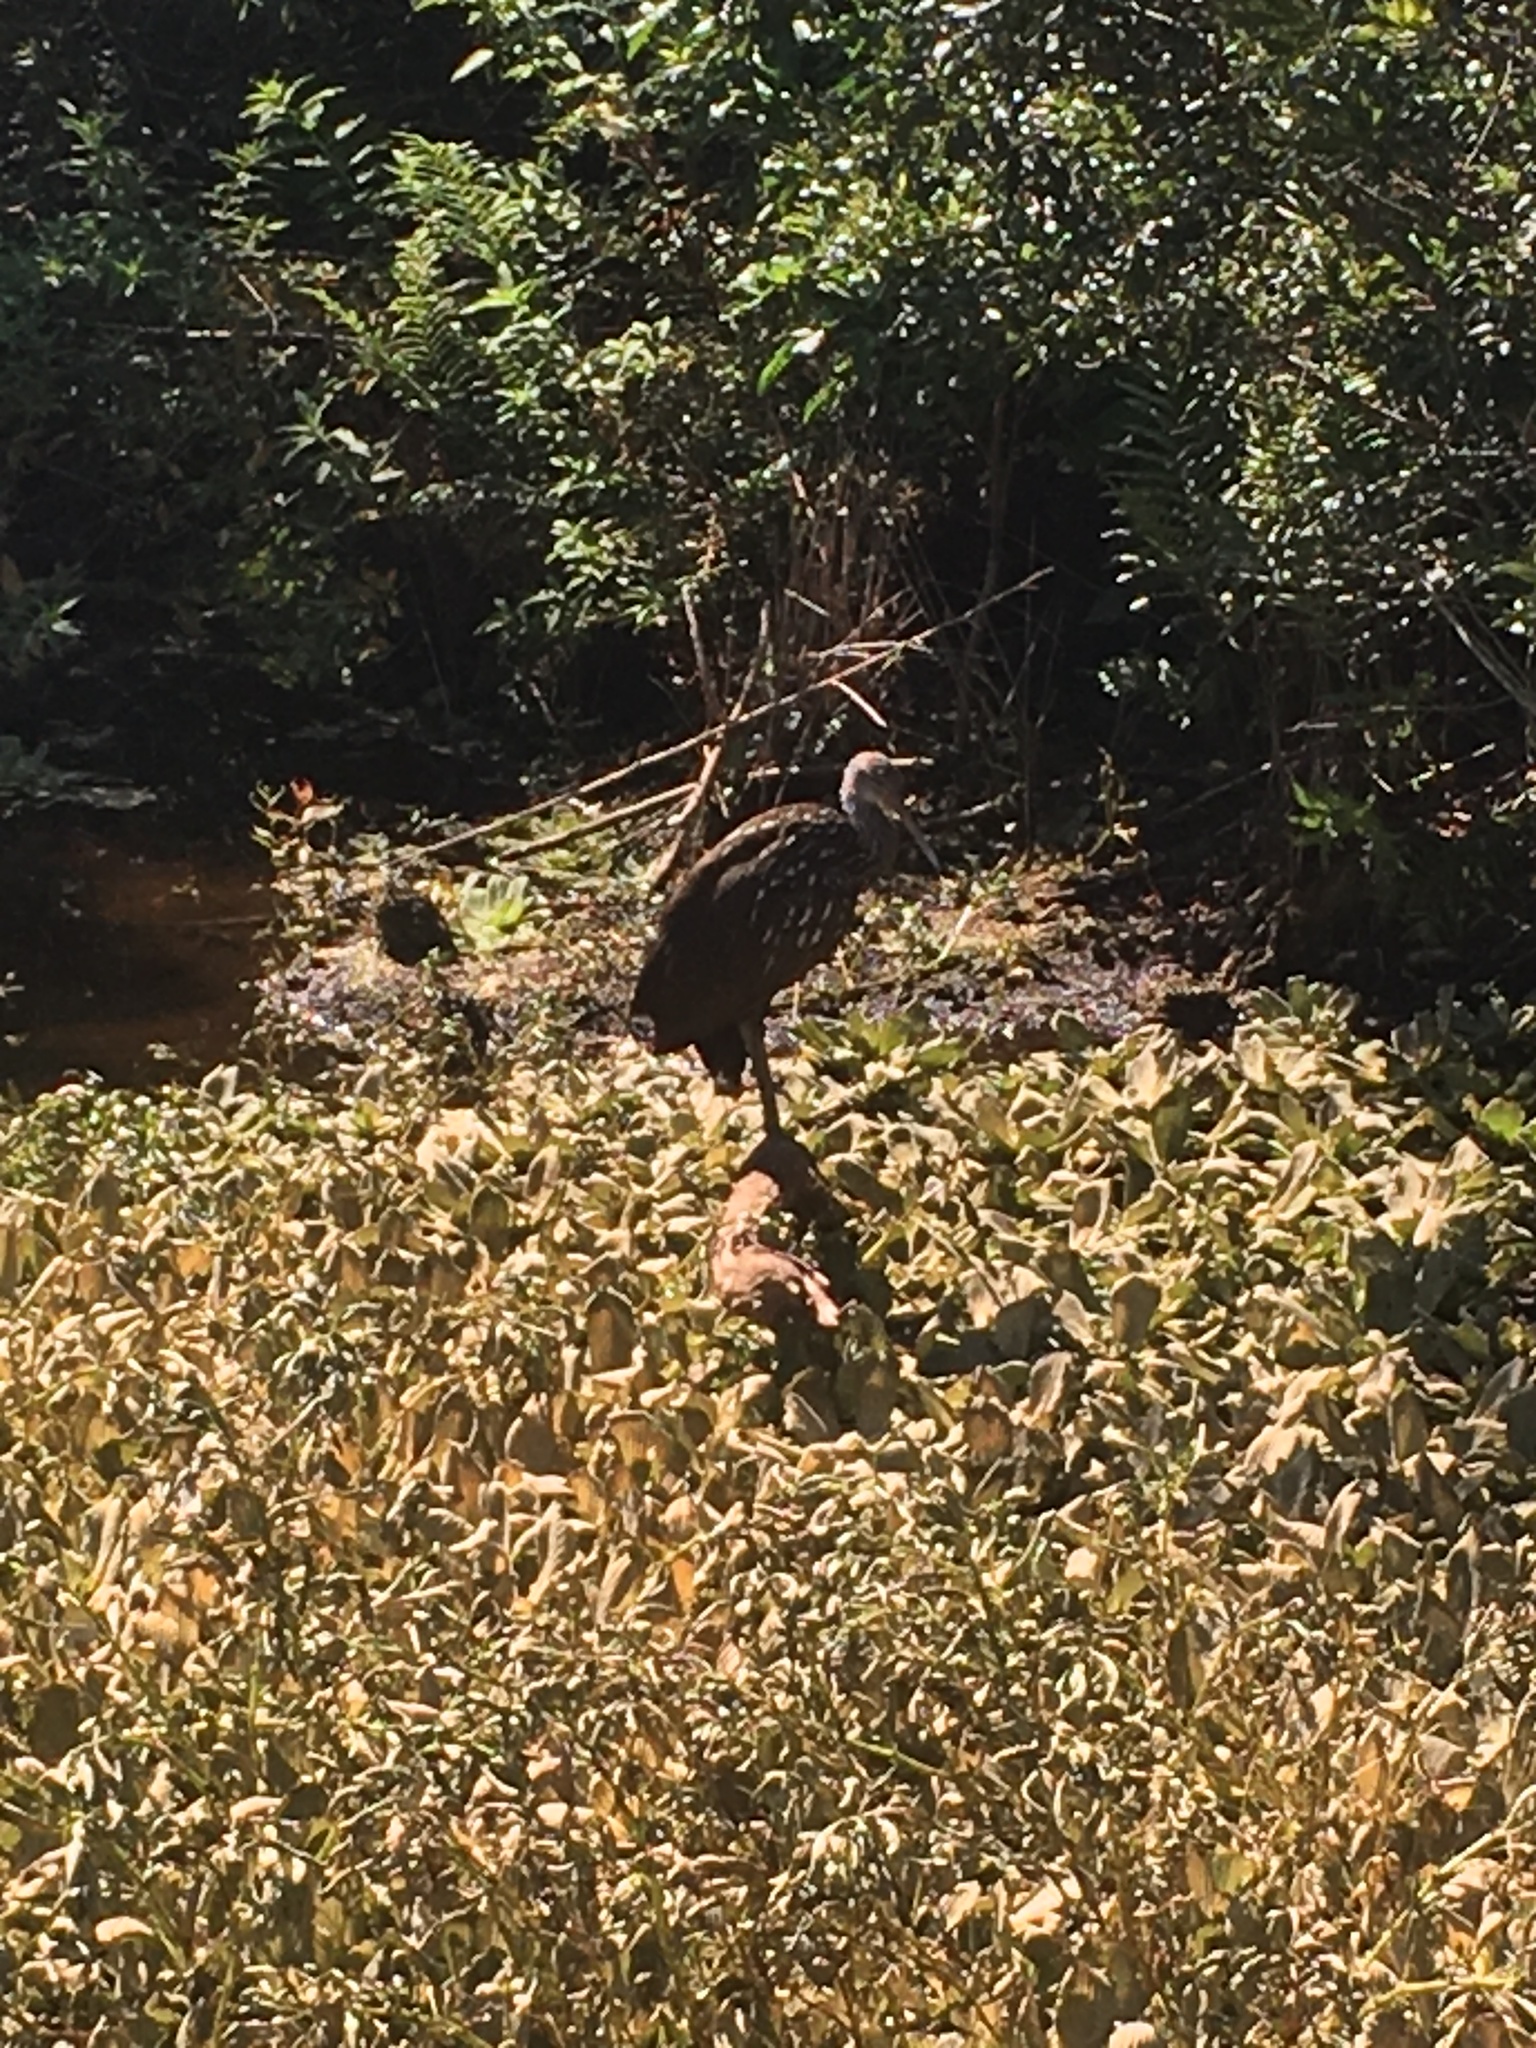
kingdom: Animalia
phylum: Chordata
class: Aves
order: Gruiformes
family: Aramidae
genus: Aramus
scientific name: Aramus guarauna
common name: Limpkin
